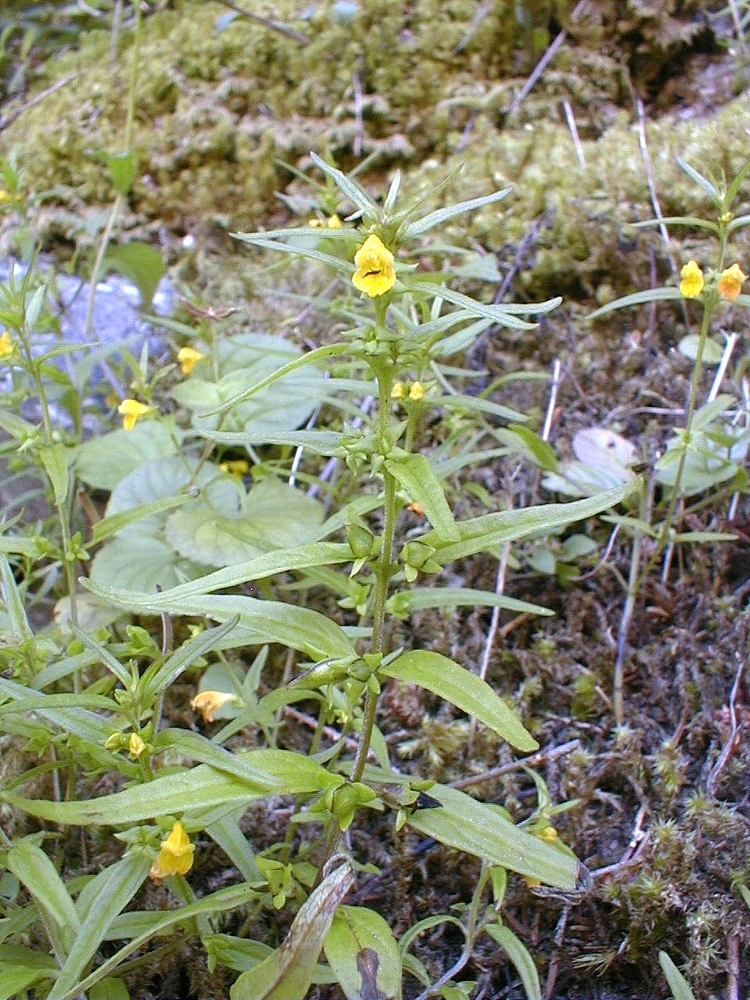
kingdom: Plantae
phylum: Tracheophyta
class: Magnoliopsida
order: Lamiales
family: Orobanchaceae
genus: Melampyrum
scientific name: Melampyrum sylvaticum
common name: Small cow-wheat
